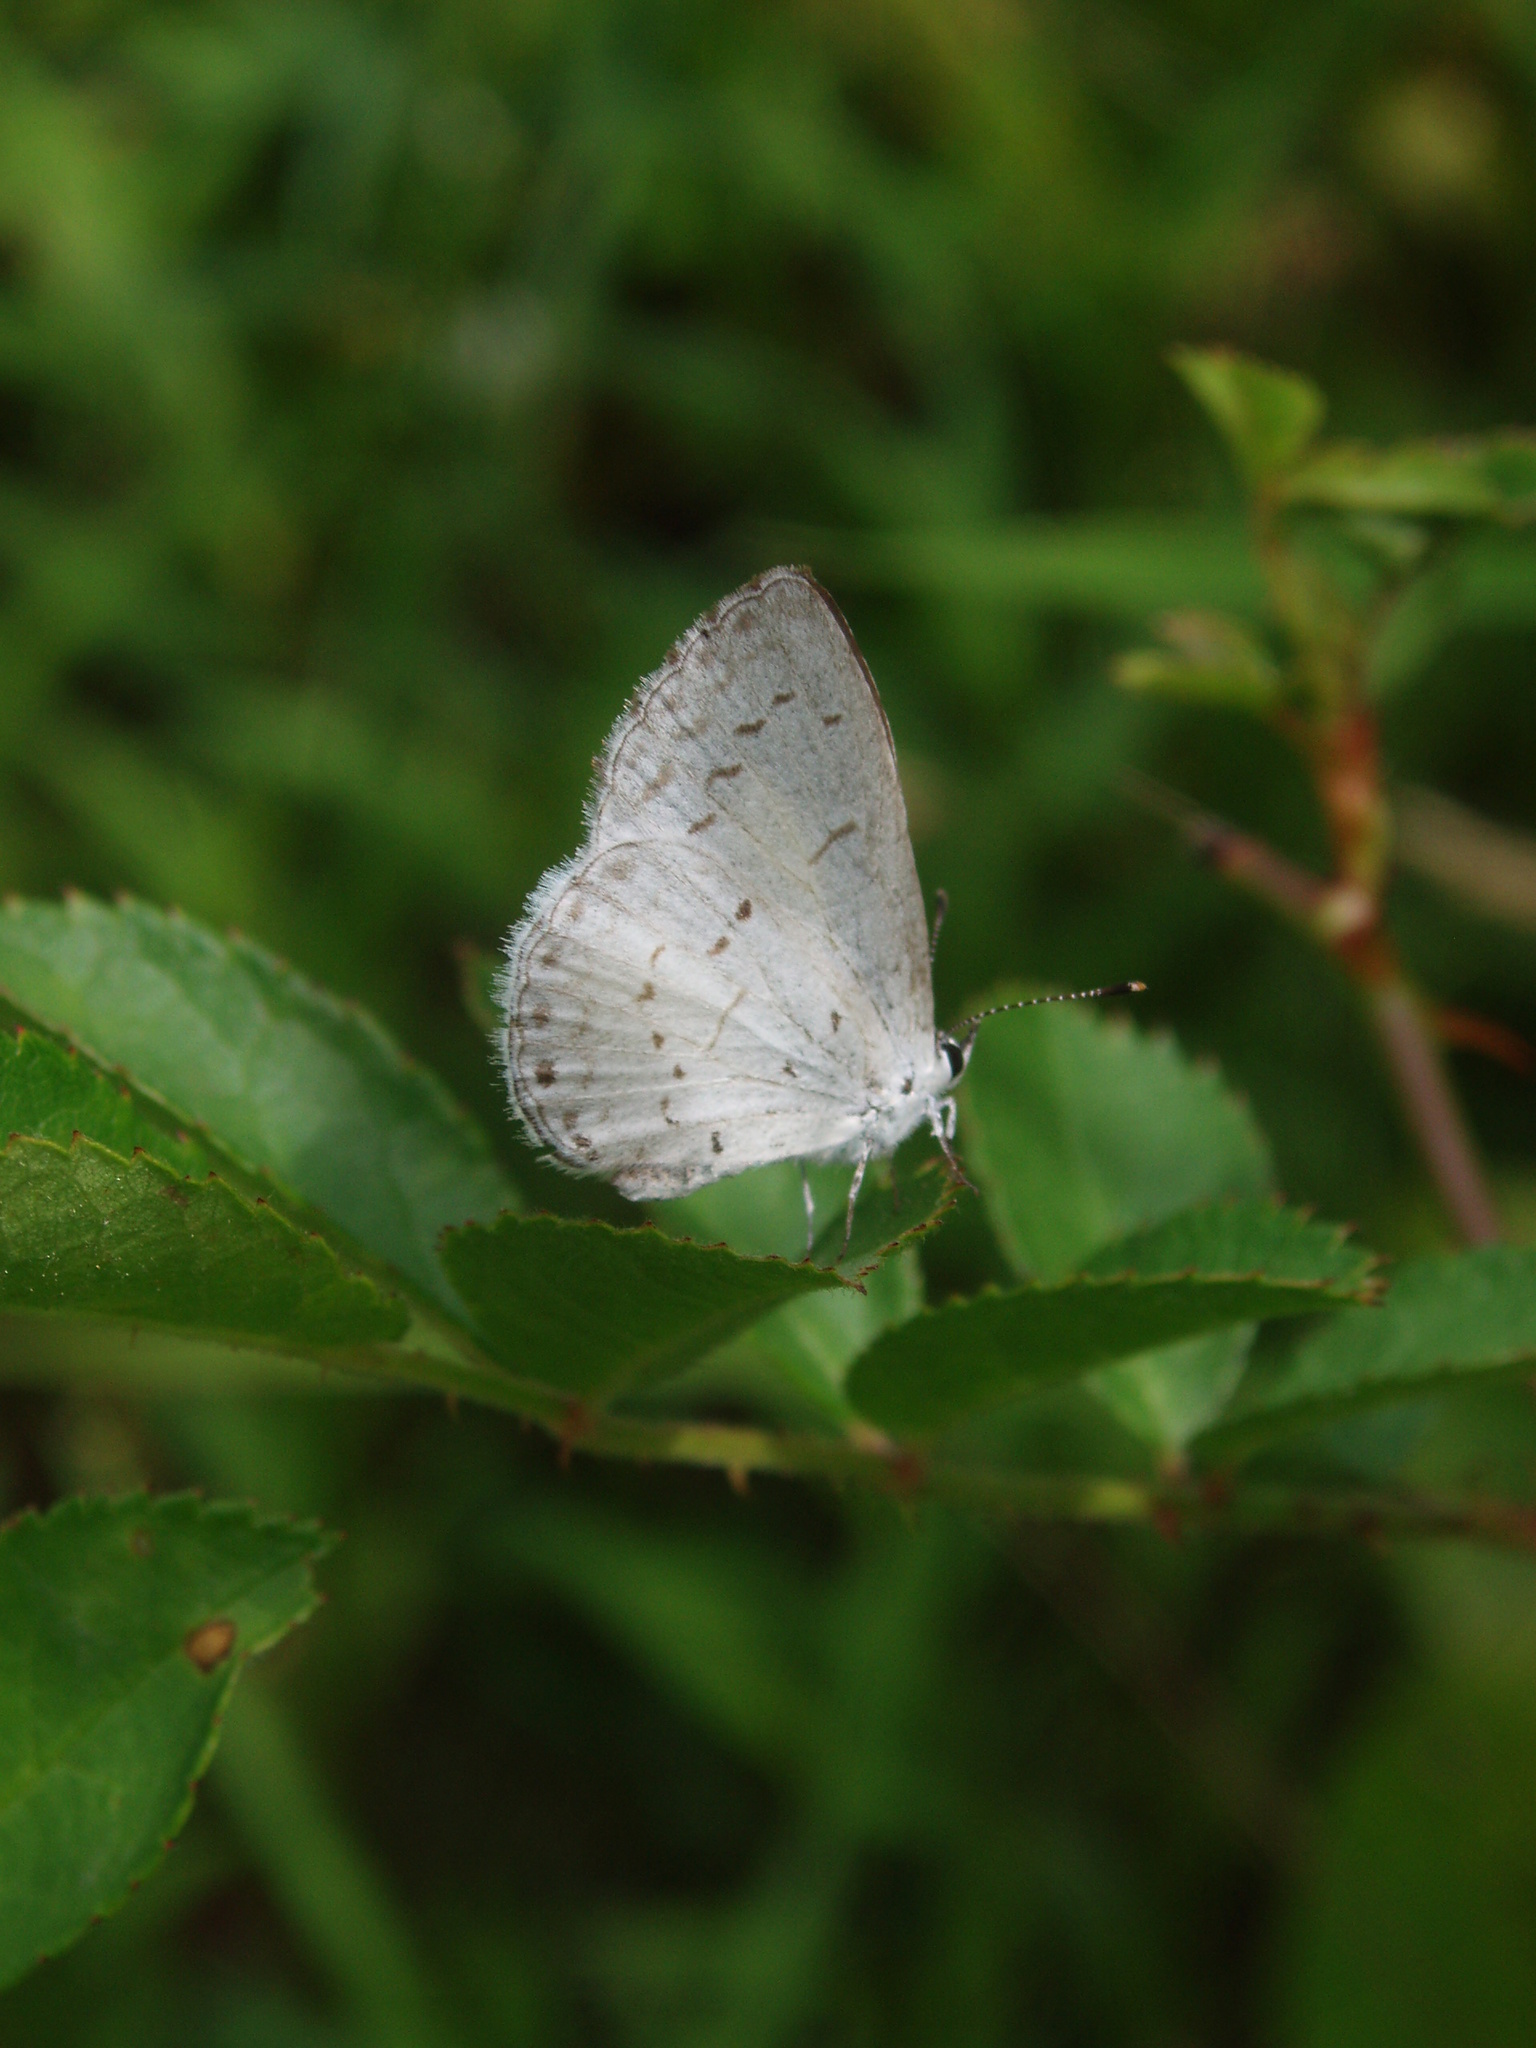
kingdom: Animalia
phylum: Arthropoda
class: Insecta
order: Lepidoptera
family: Lycaenidae
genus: Cyaniris
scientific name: Cyaniris neglecta
